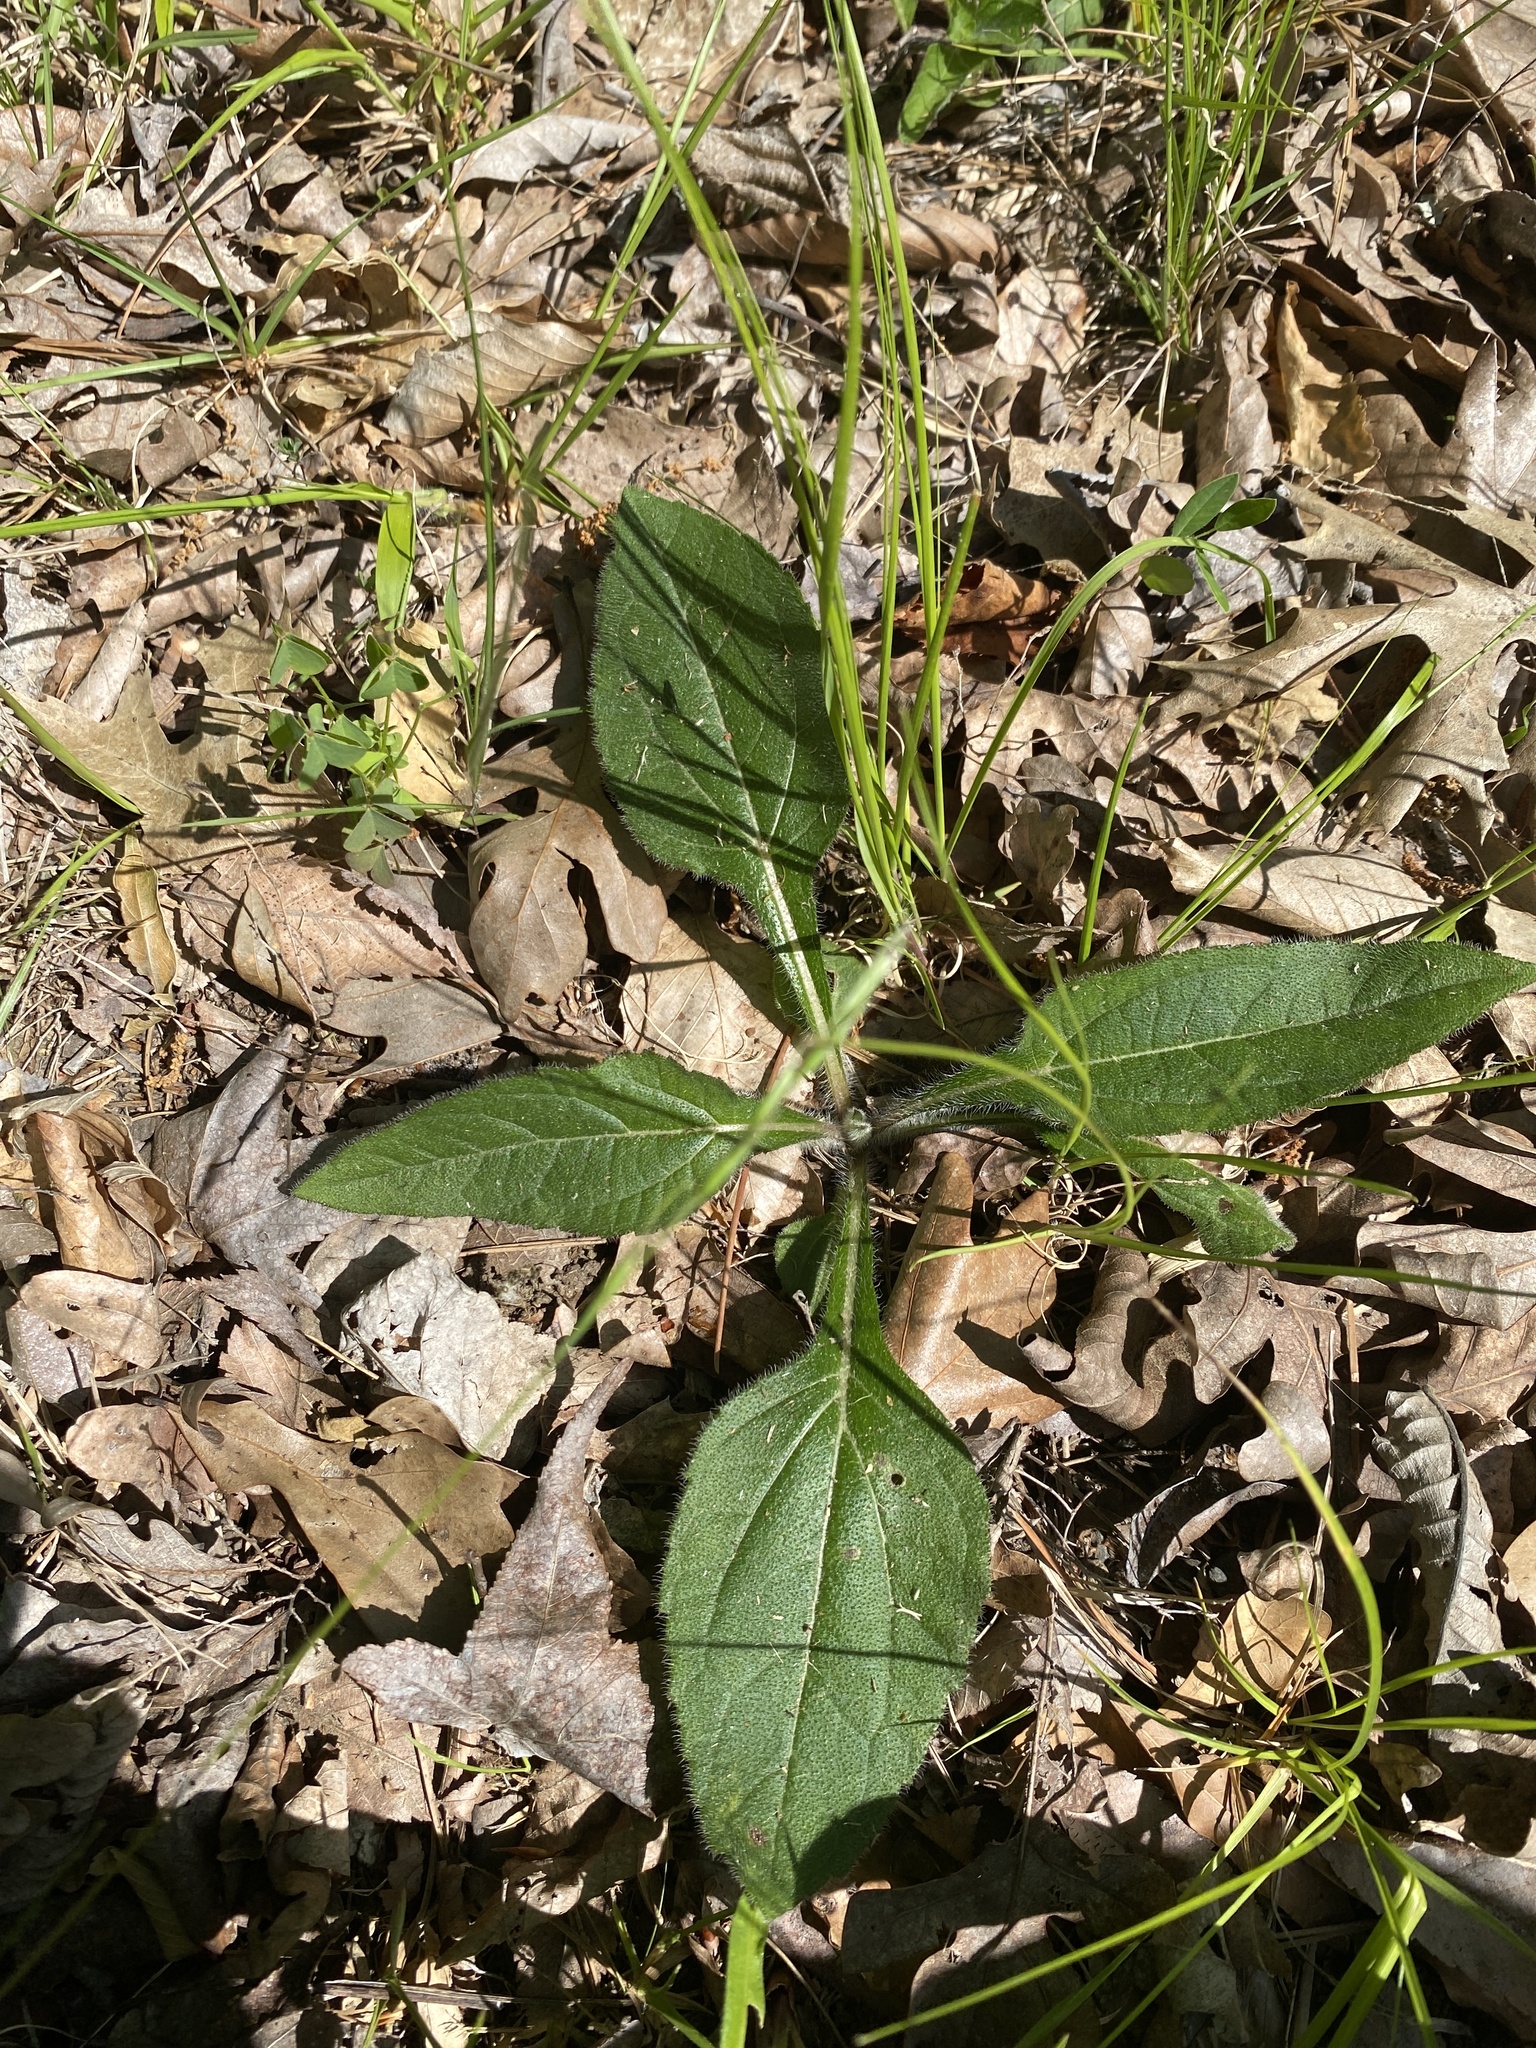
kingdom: Plantae
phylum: Tracheophyta
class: Magnoliopsida
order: Asterales
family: Asteraceae
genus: Helianthus
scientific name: Helianthus atrorubens
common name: Dark-eyed sunflower
